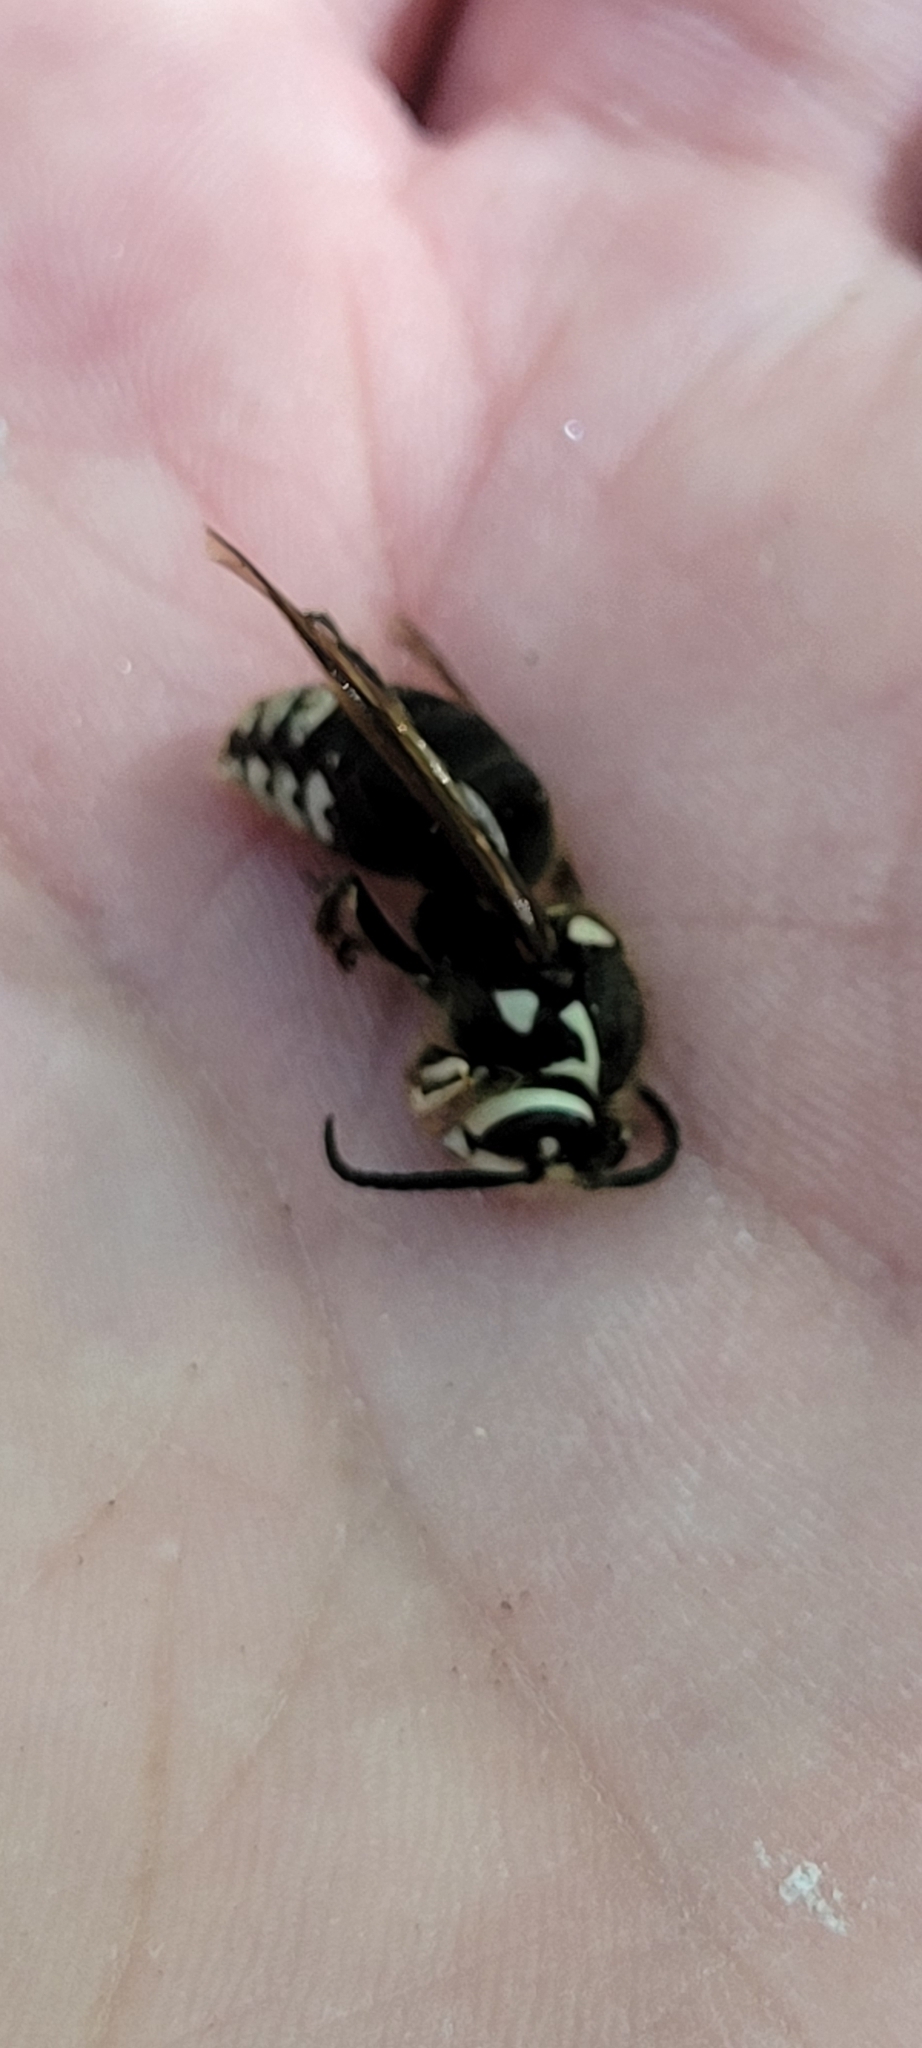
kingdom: Animalia
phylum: Arthropoda
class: Insecta
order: Hymenoptera
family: Vespidae
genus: Dolichovespula
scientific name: Dolichovespula maculata
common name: Bald-faced hornet
